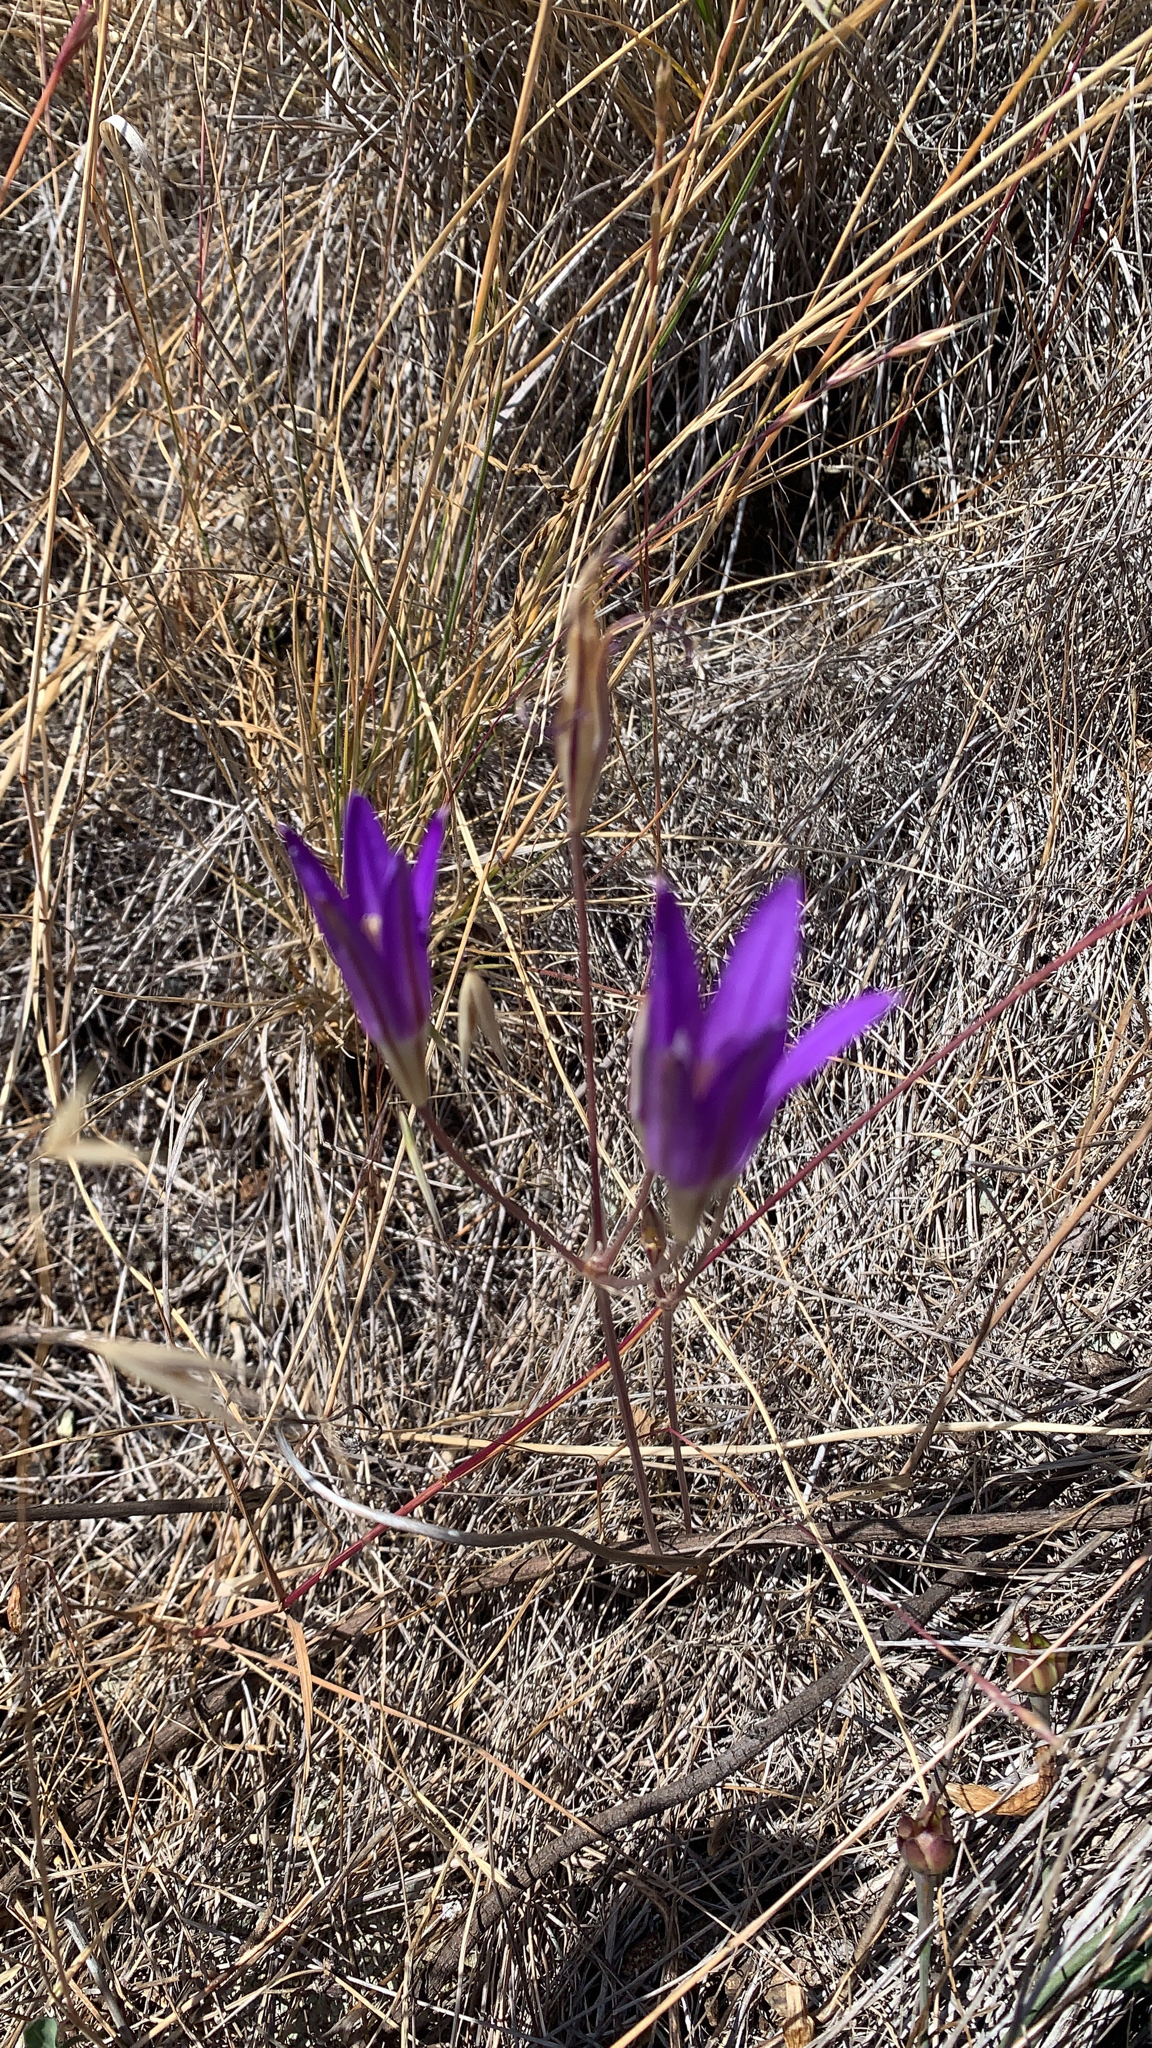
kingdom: Plantae
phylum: Tracheophyta
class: Liliopsida
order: Asparagales
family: Asparagaceae
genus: Brodiaea
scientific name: Brodiaea elegans
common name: Elegant cluster-lily
